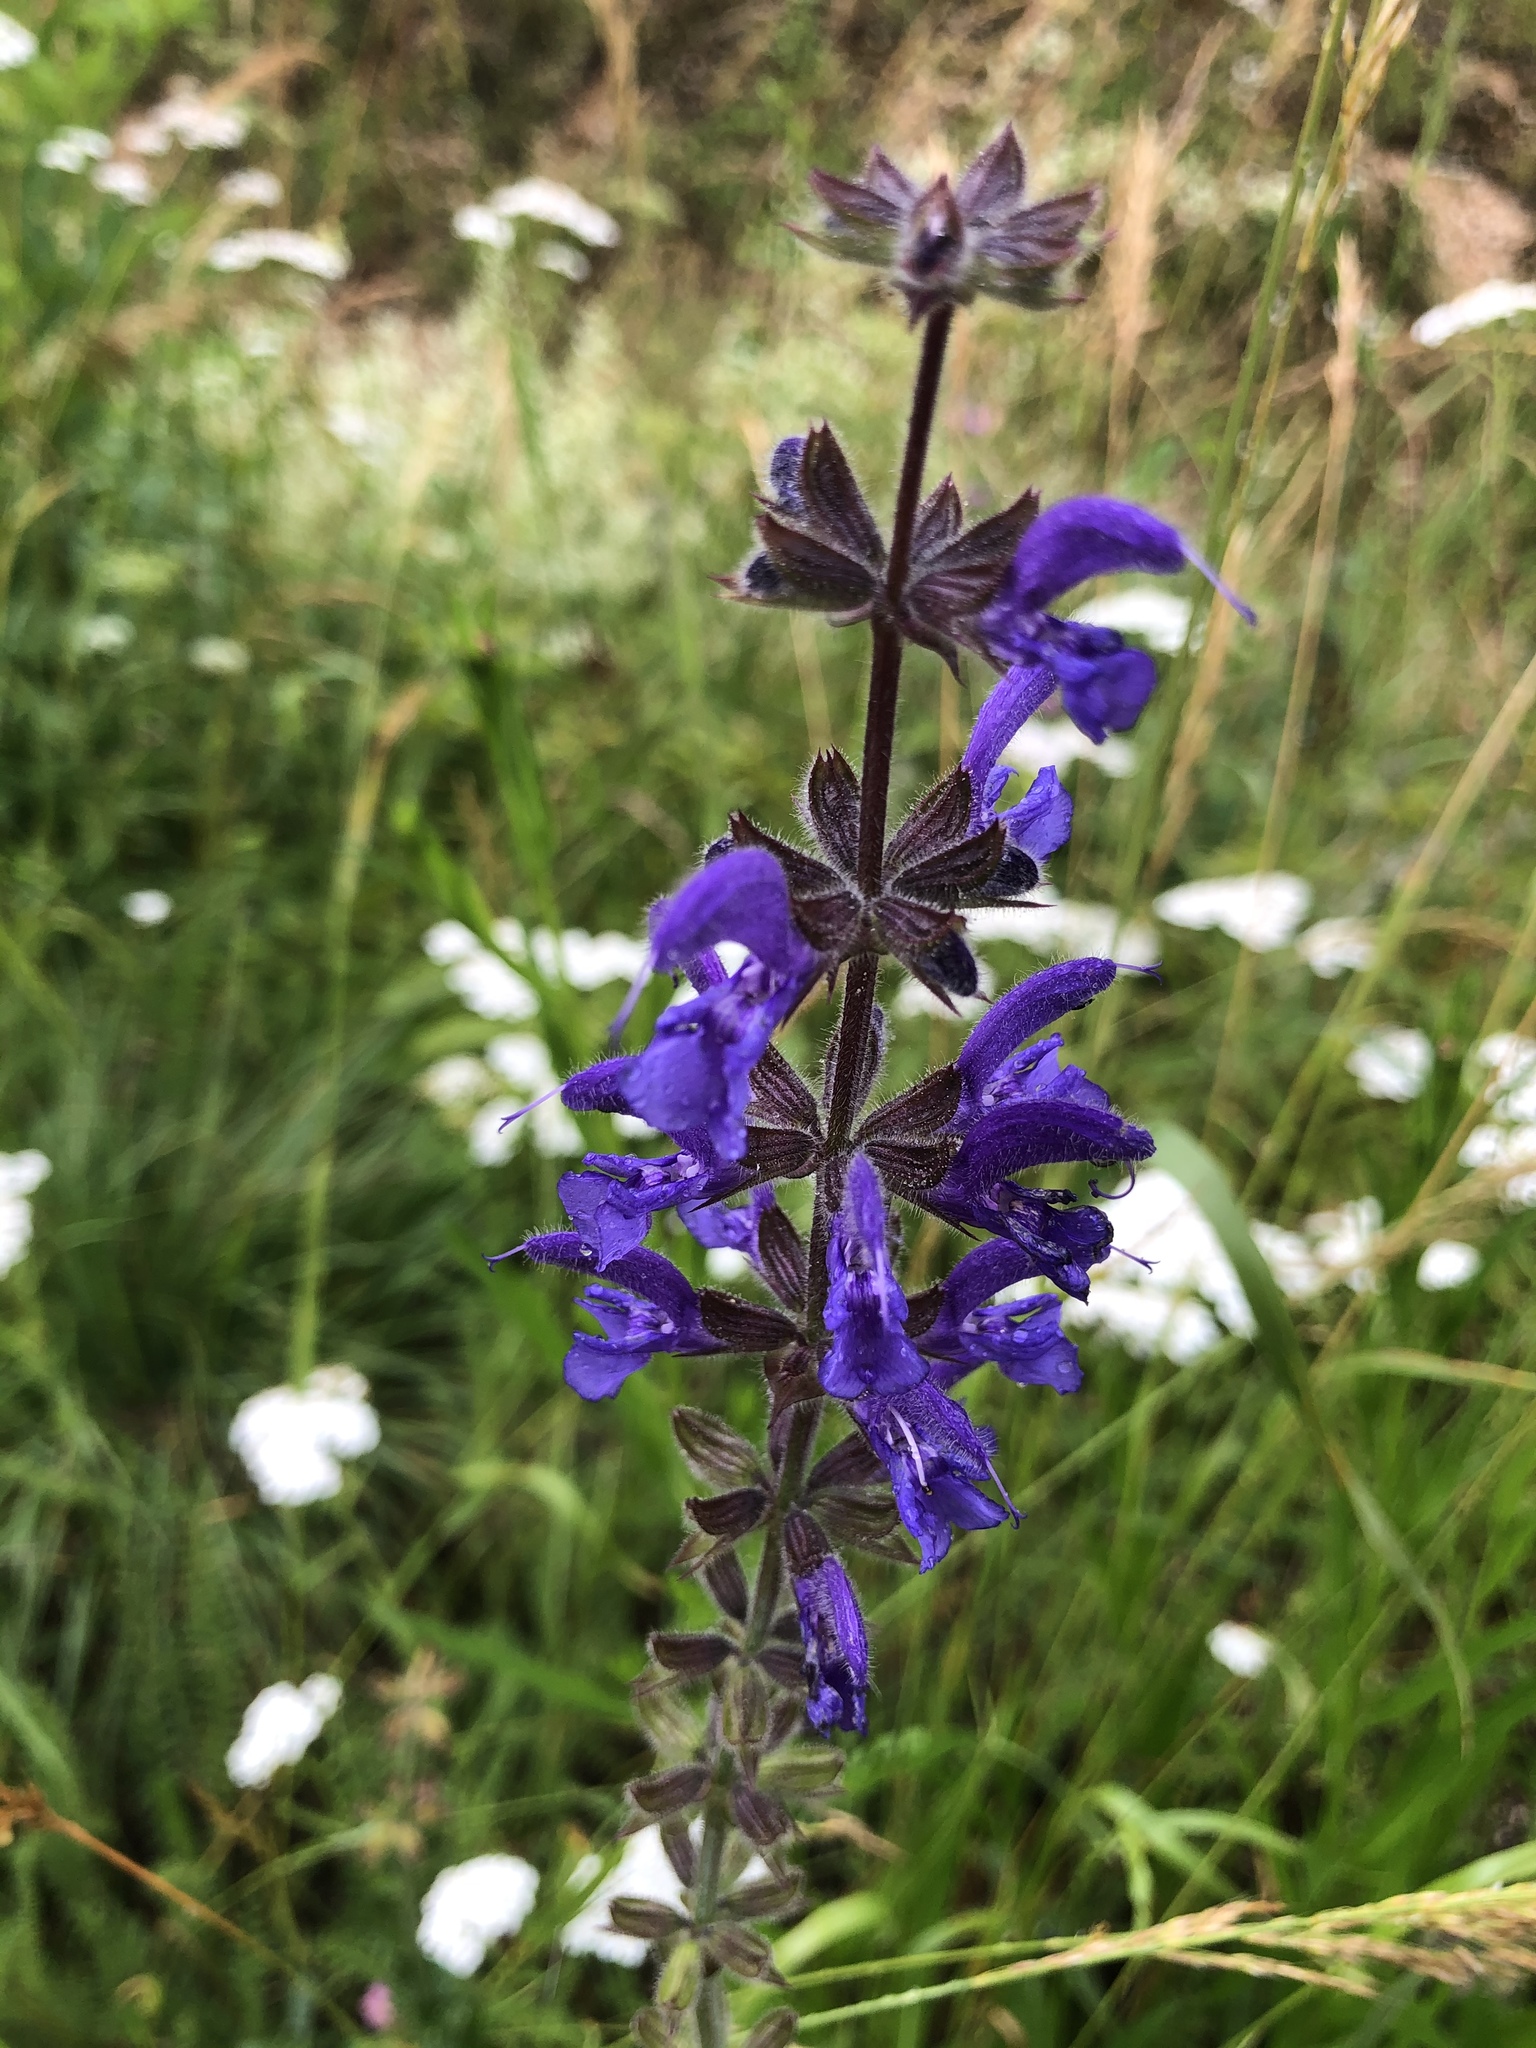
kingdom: Plantae
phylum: Tracheophyta
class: Magnoliopsida
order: Lamiales
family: Lamiaceae
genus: Salvia
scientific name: Salvia pratensis
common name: Meadow sage
